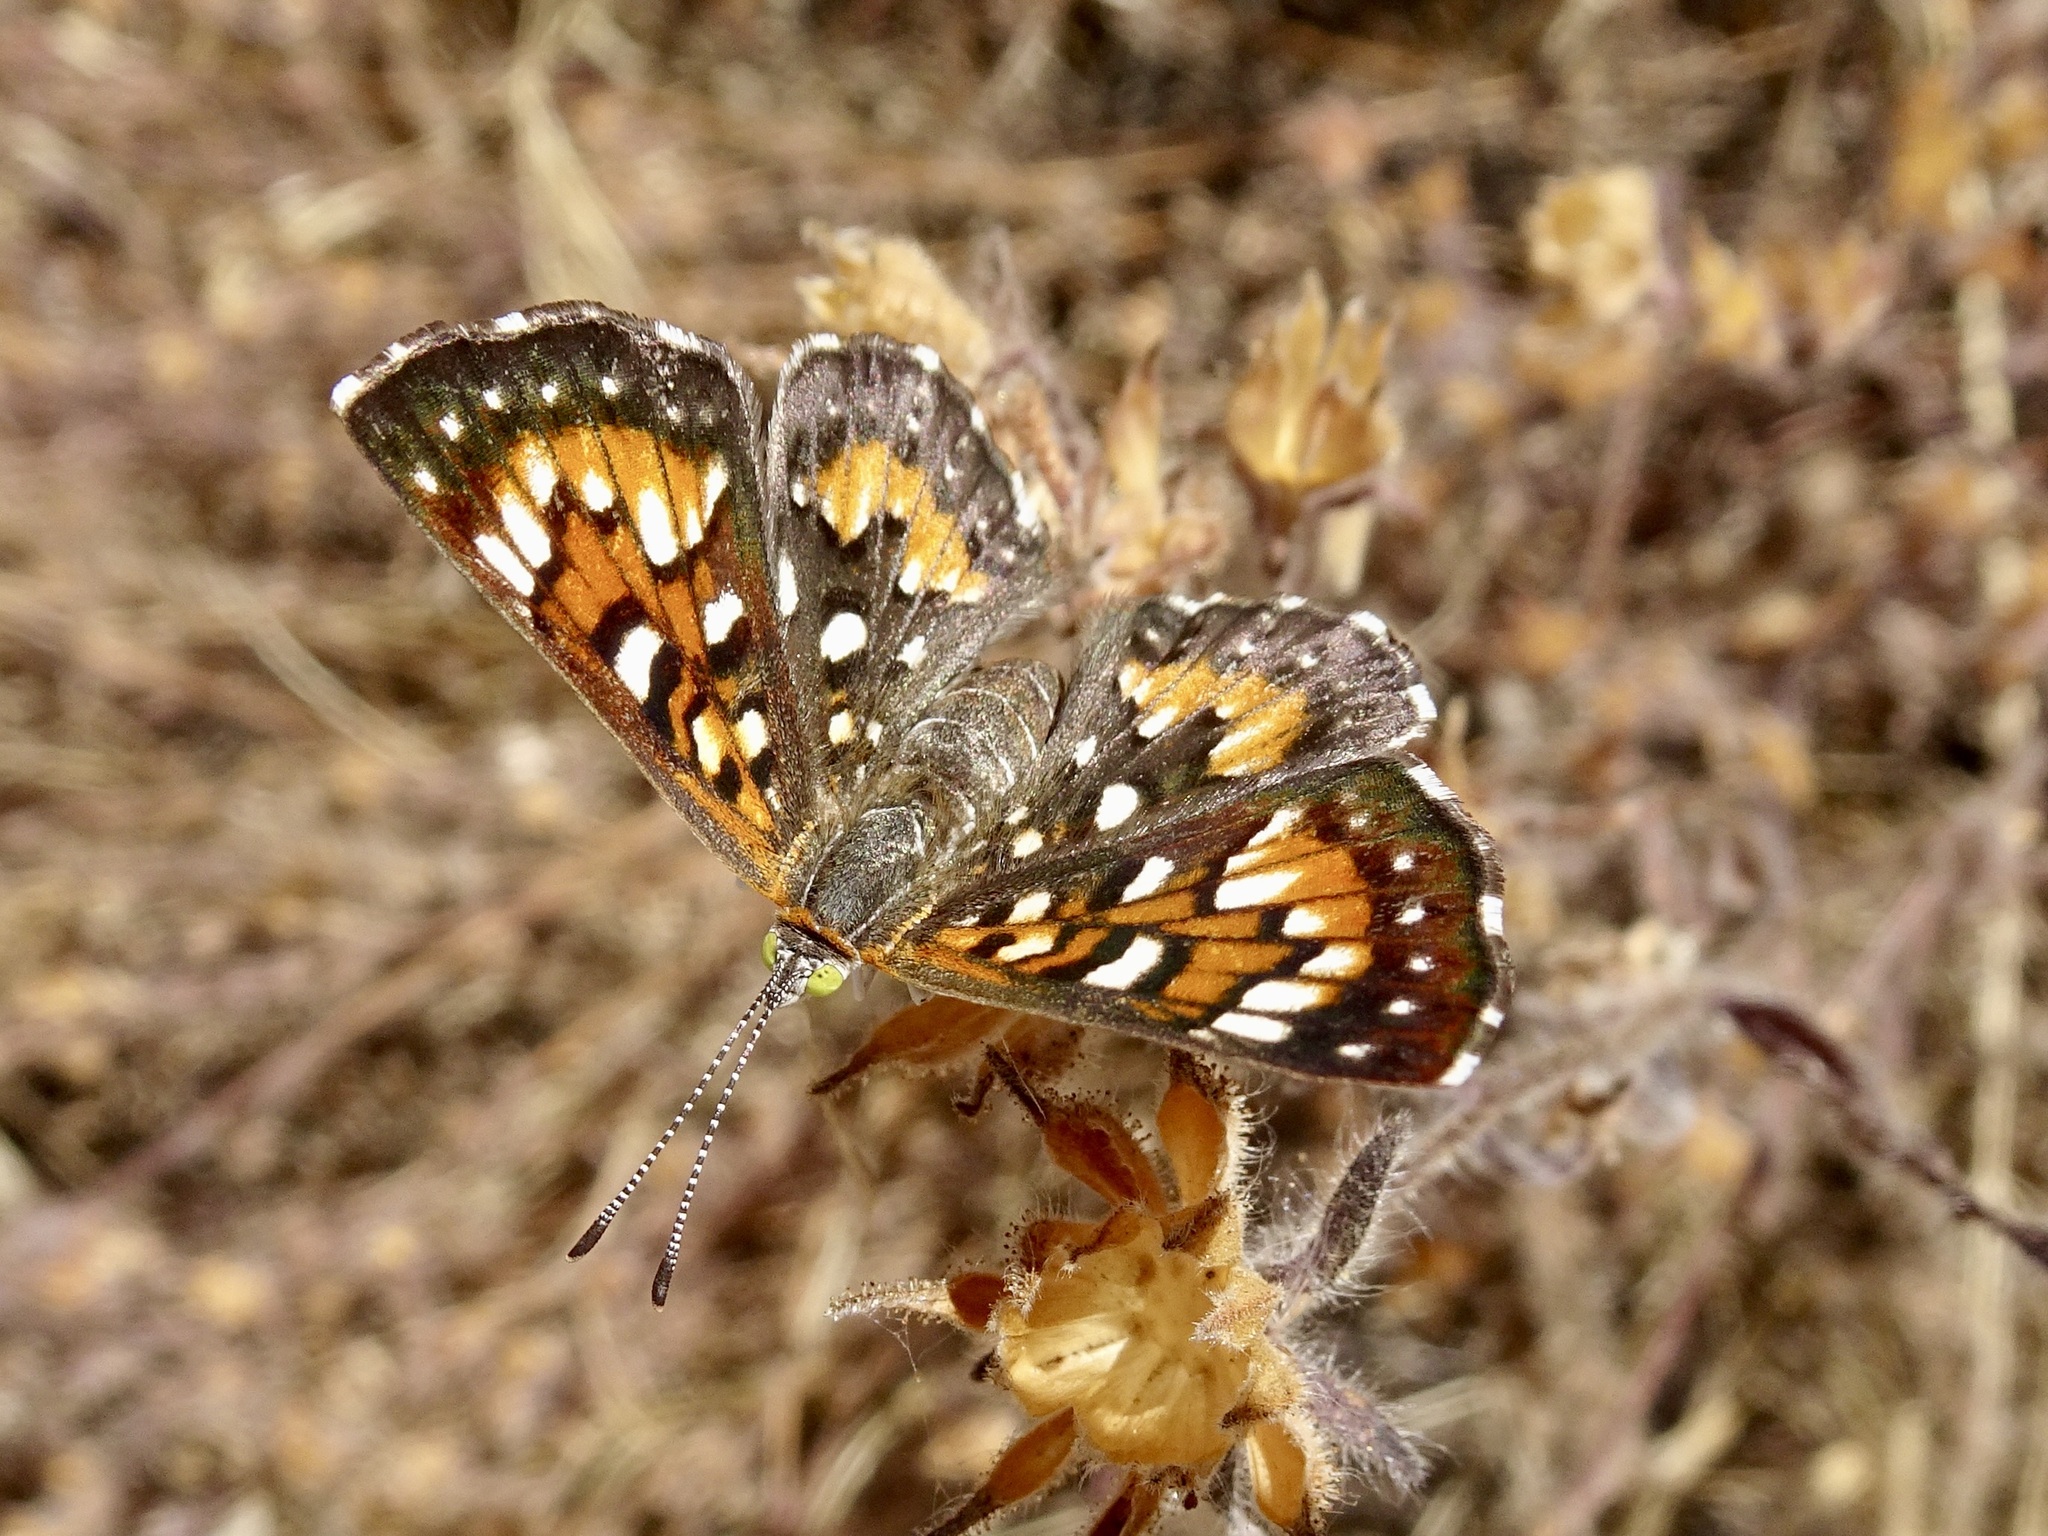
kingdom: Animalia
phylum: Arthropoda
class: Insecta
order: Lepidoptera
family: Riodinidae
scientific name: Riodinidae
